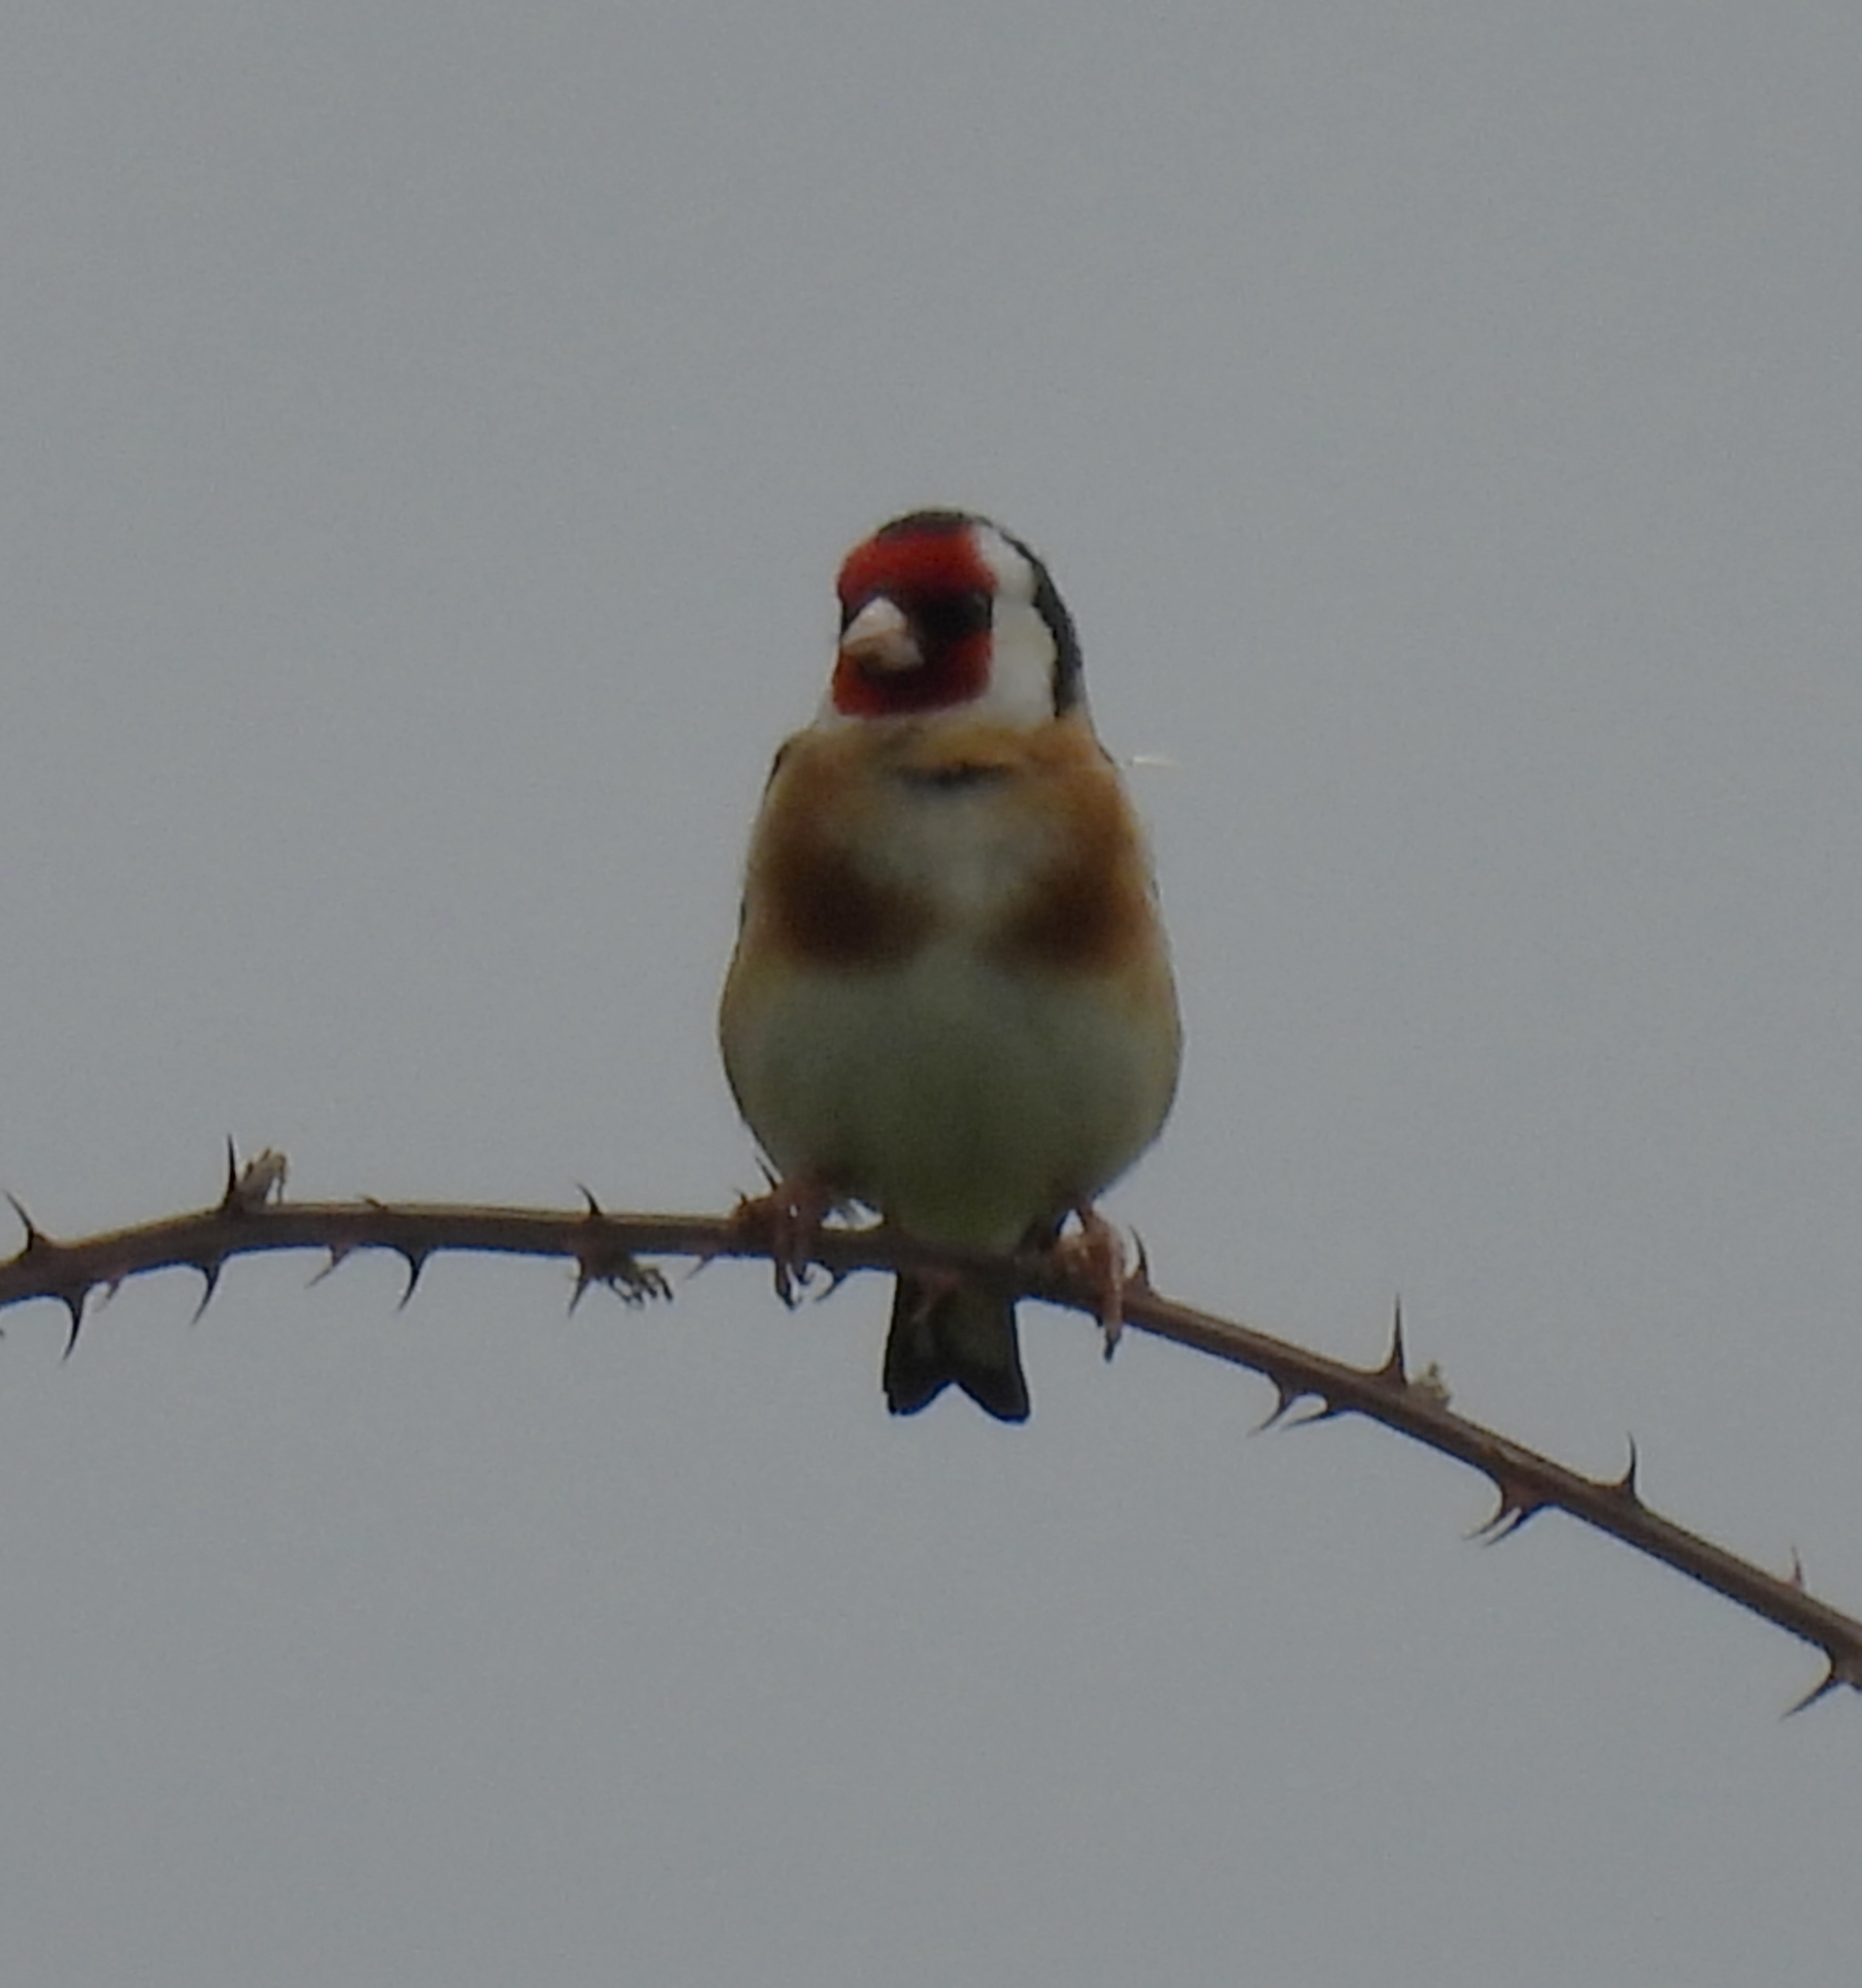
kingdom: Animalia
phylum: Chordata
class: Aves
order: Passeriformes
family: Fringillidae
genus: Carduelis
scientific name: Carduelis carduelis
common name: European goldfinch
